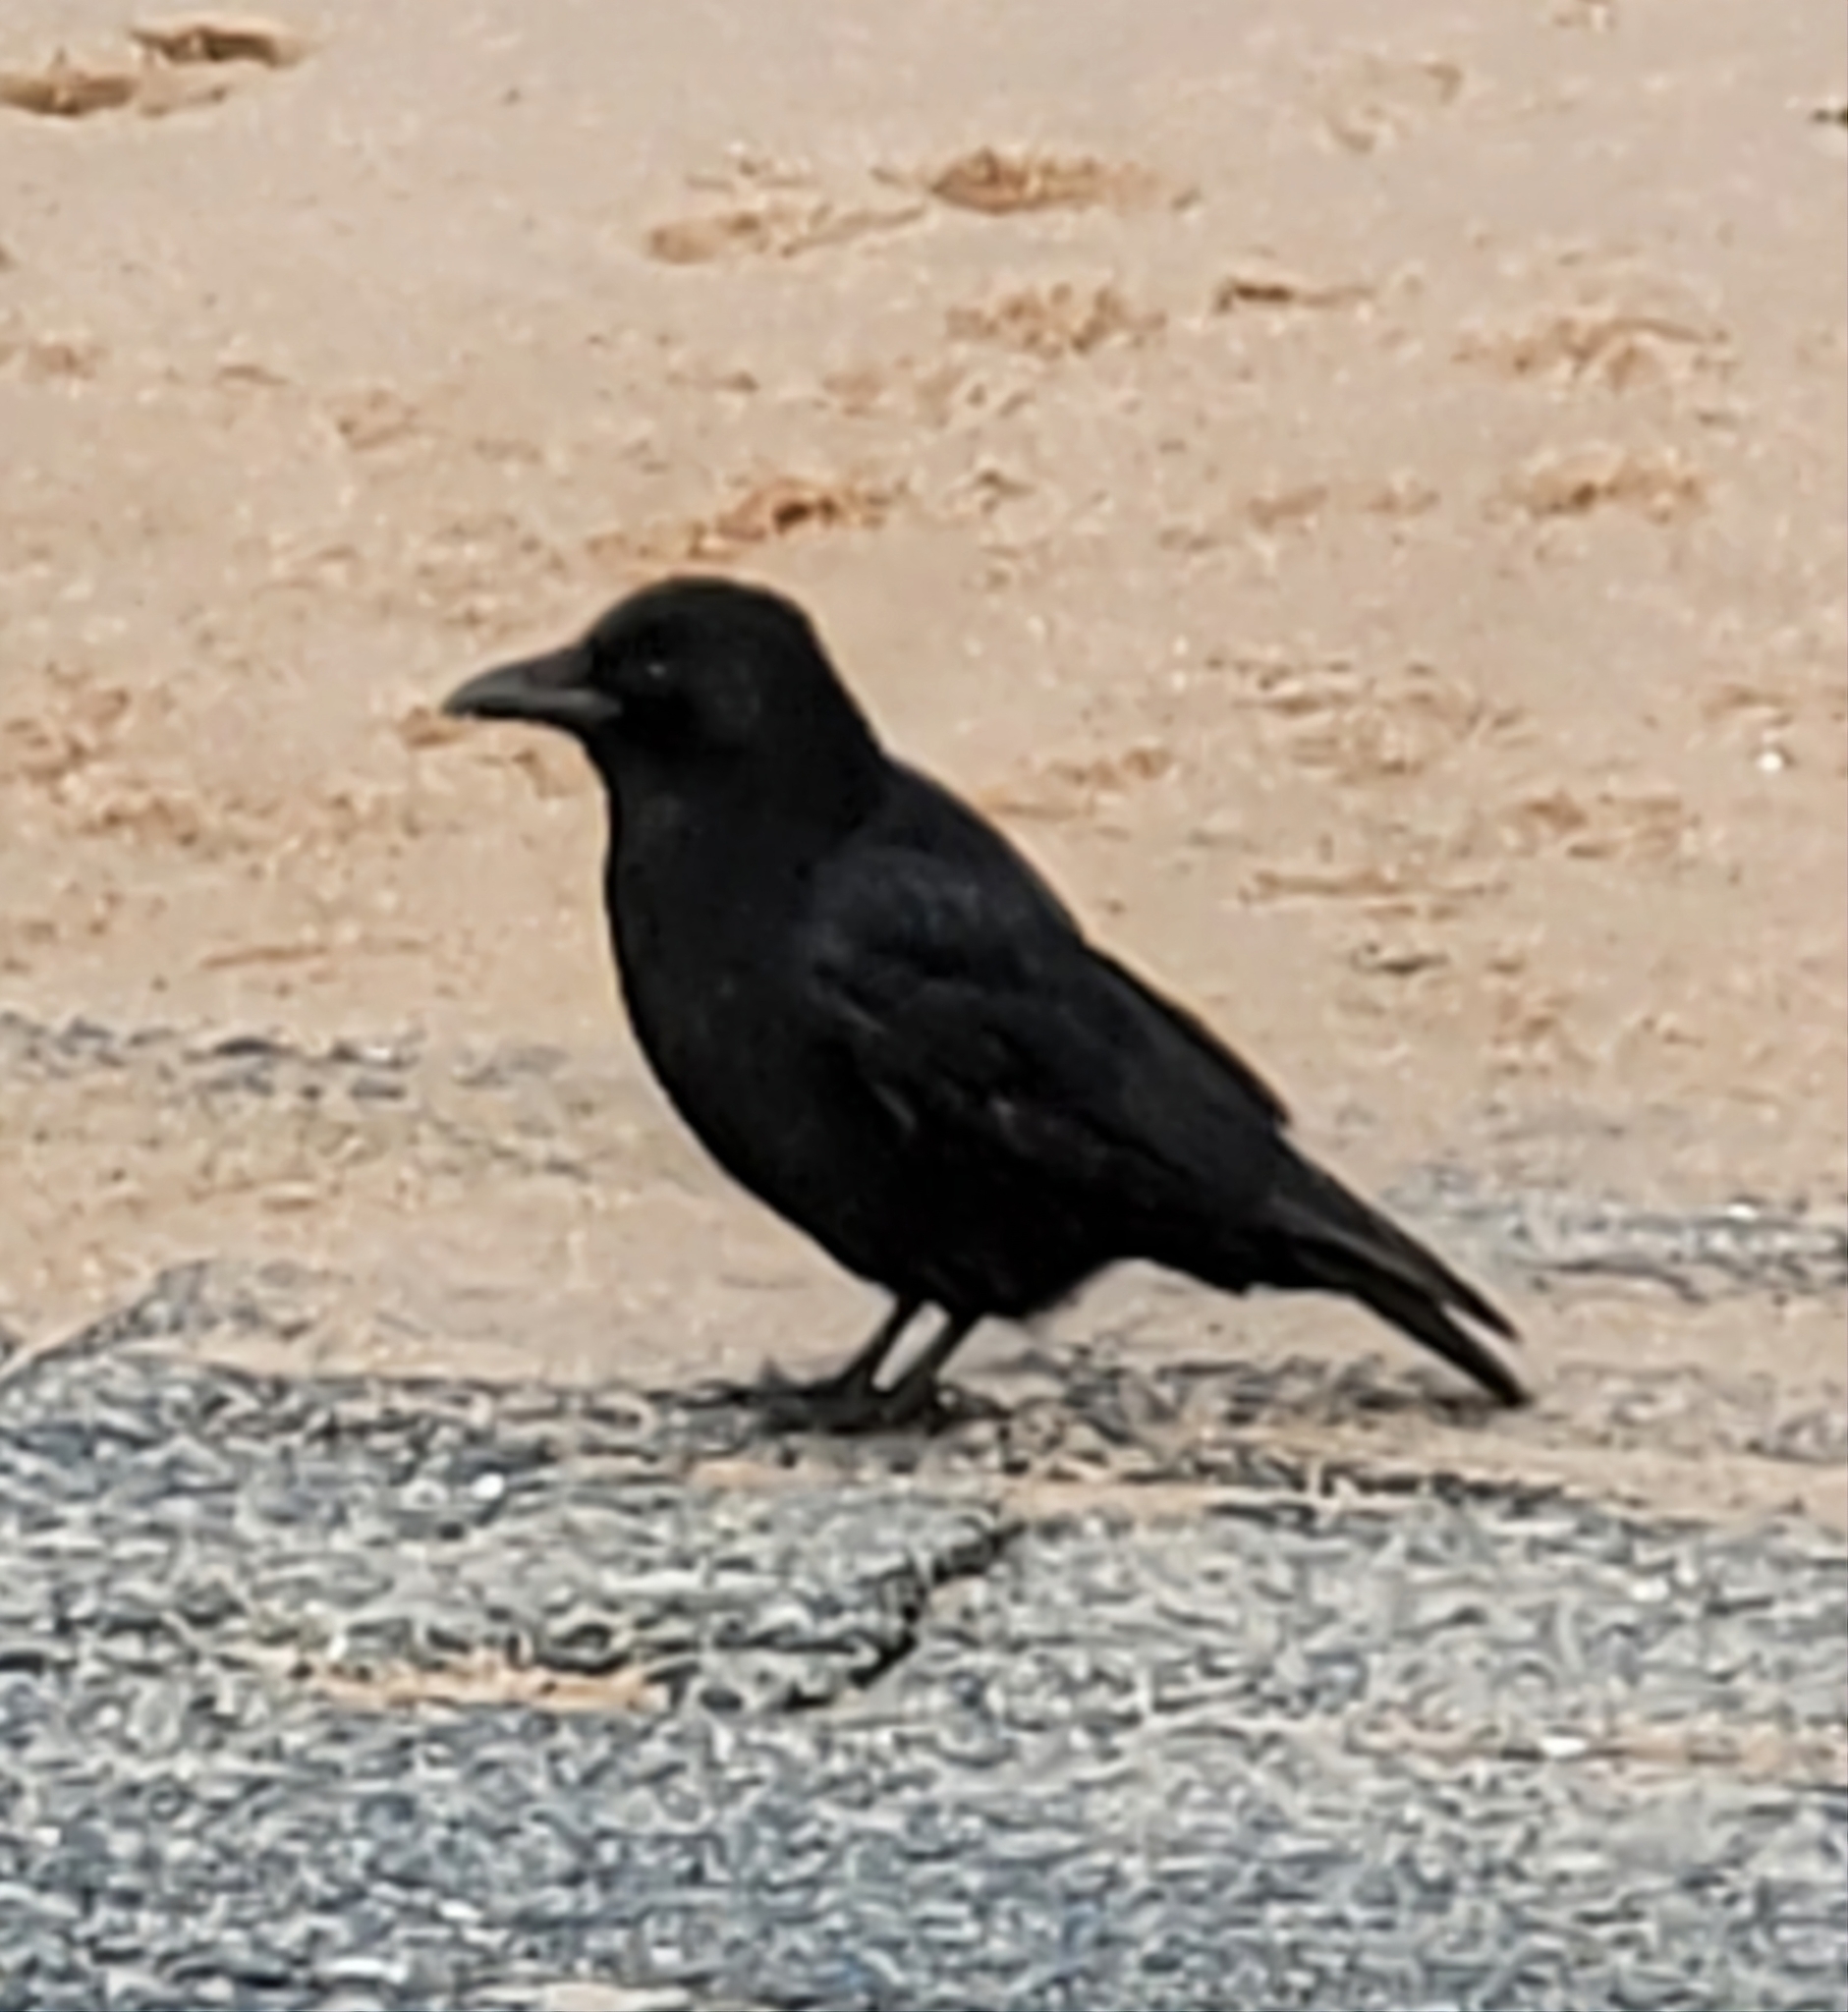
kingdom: Animalia
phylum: Chordata
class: Aves
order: Passeriformes
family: Corvidae
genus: Corvus
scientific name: Corvus corone
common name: Carrion crow
